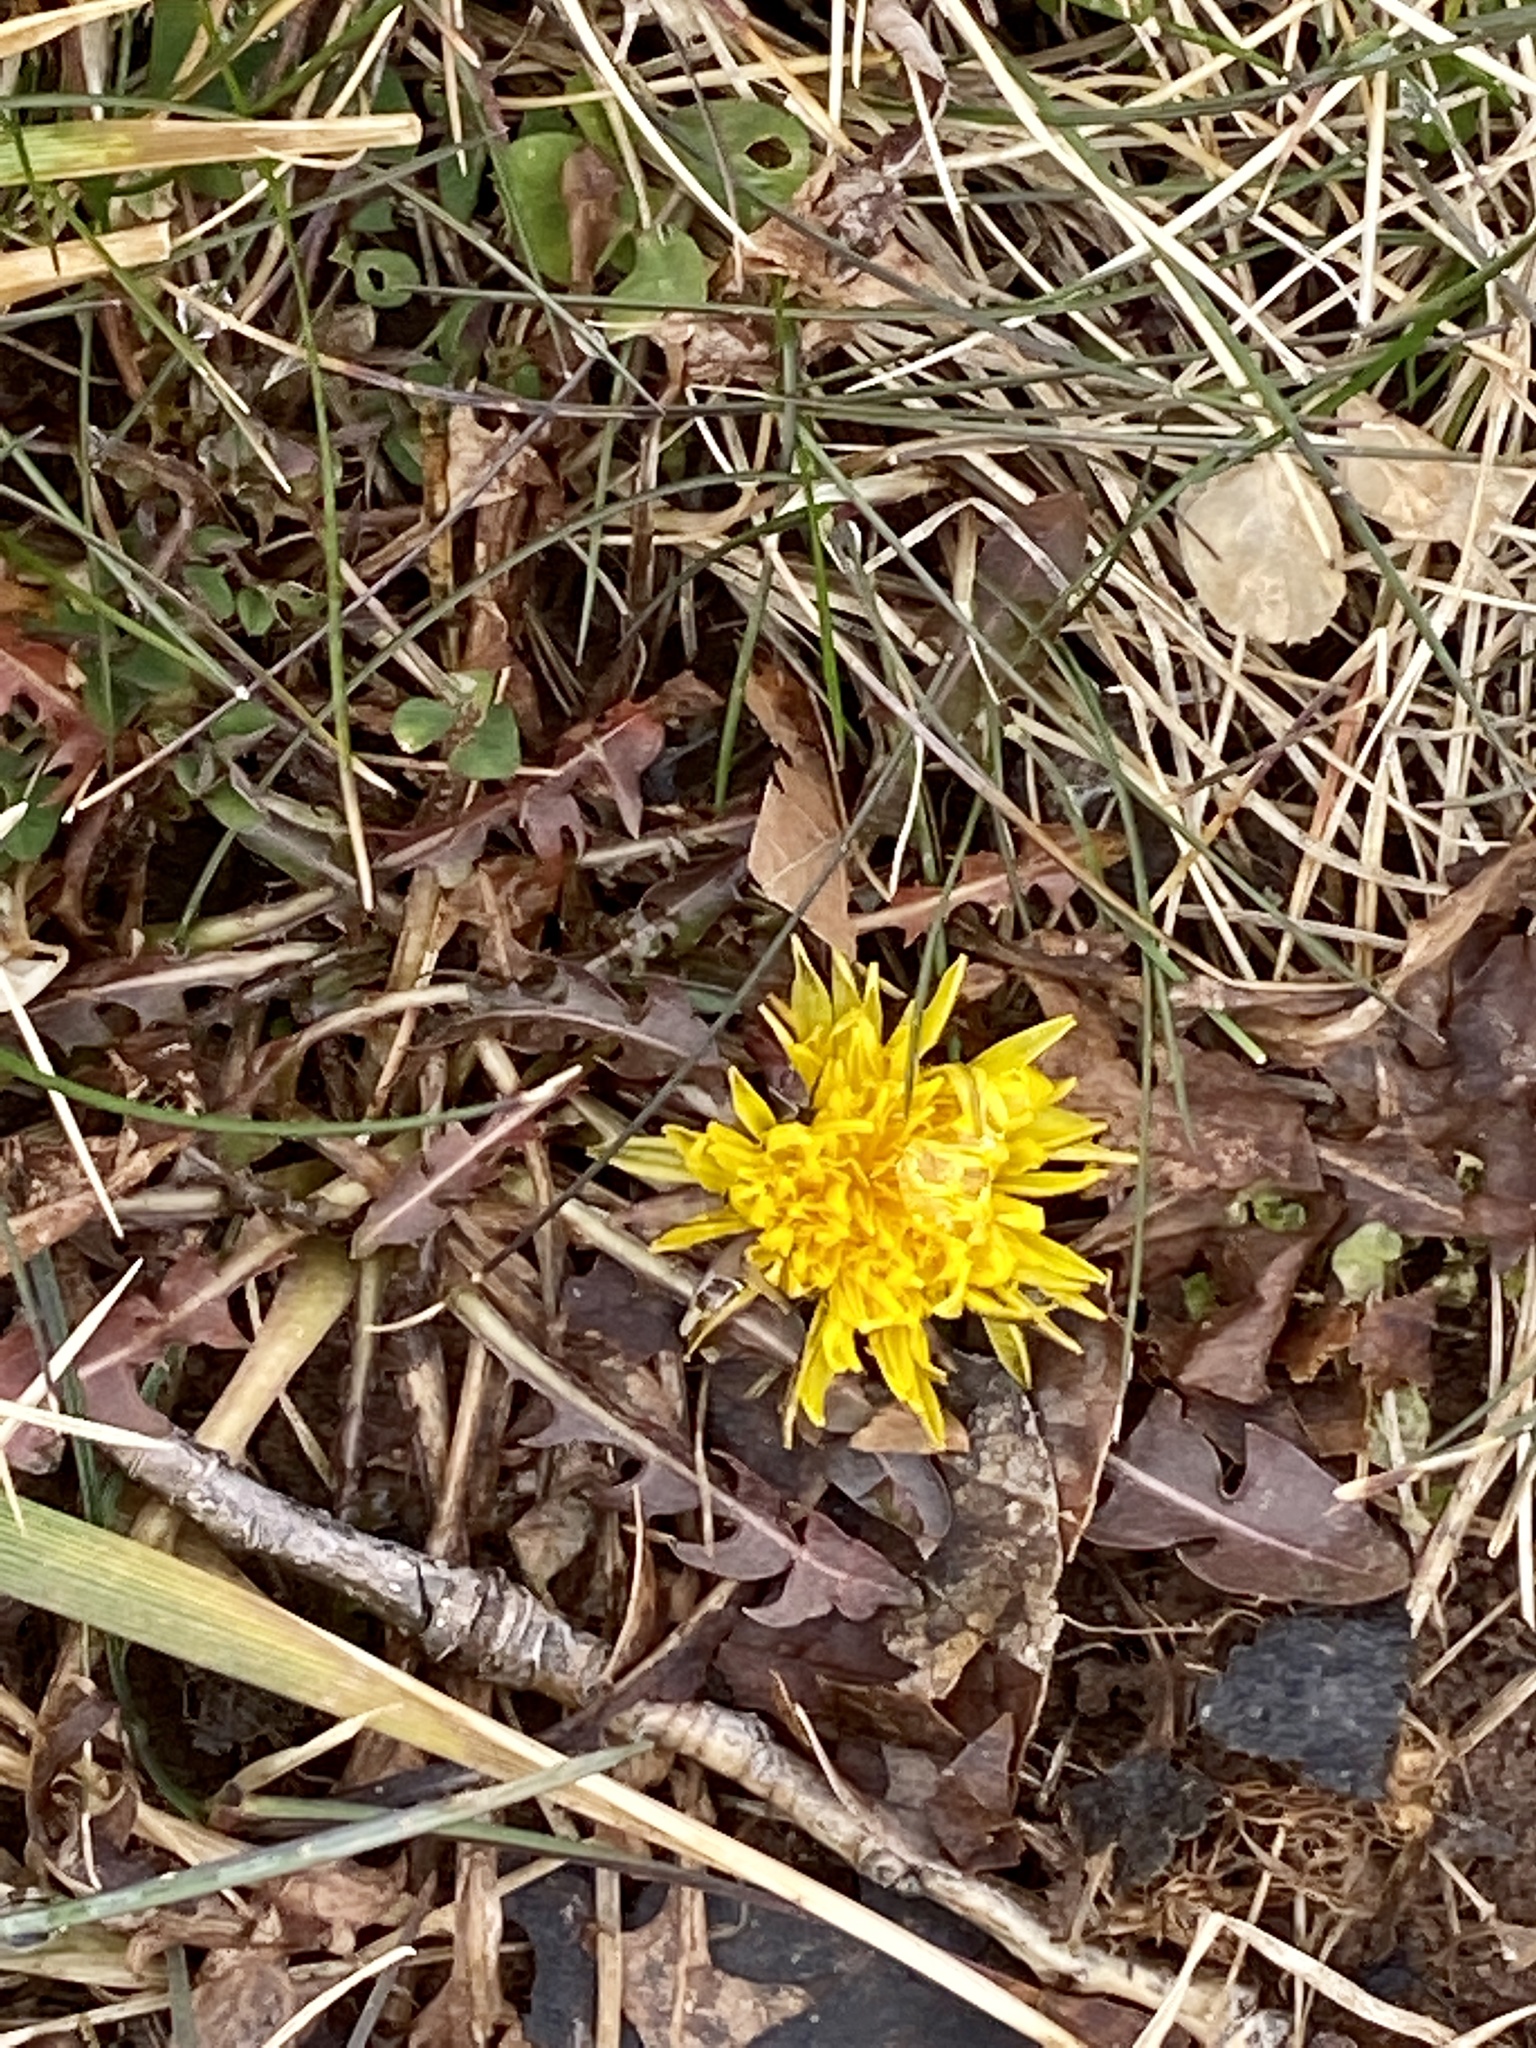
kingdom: Plantae
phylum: Tracheophyta
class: Magnoliopsida
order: Asterales
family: Asteraceae
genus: Taraxacum
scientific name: Taraxacum
